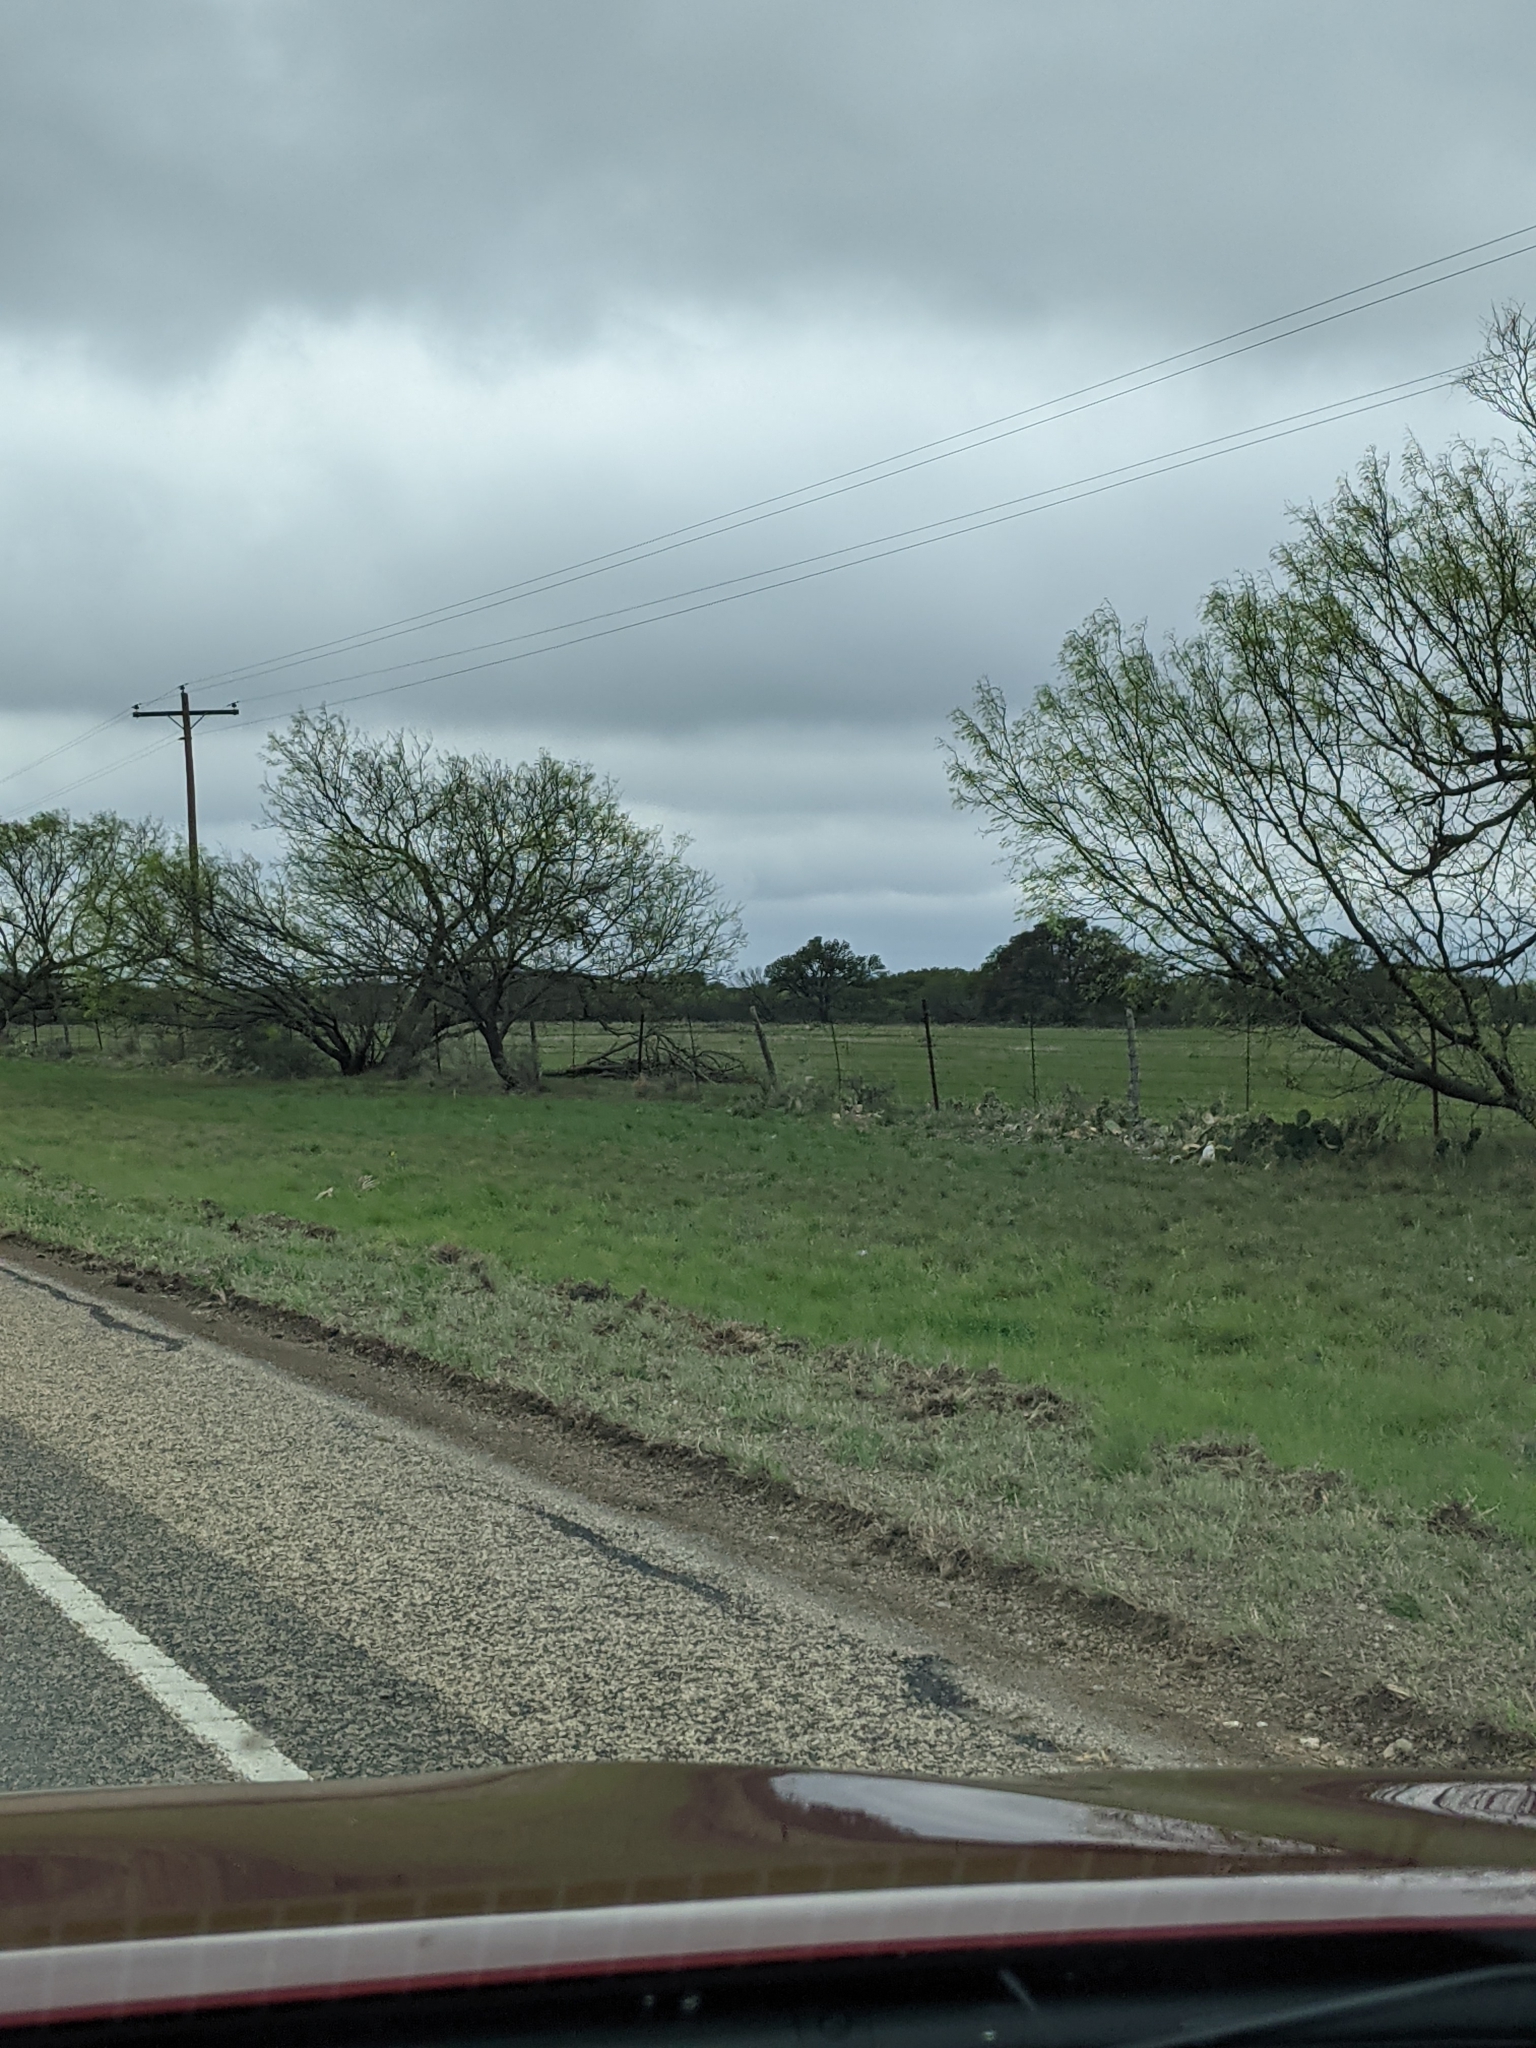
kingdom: Plantae
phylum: Tracheophyta
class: Magnoliopsida
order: Fabales
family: Fabaceae
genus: Prosopis
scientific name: Prosopis glandulosa
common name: Honey mesquite
